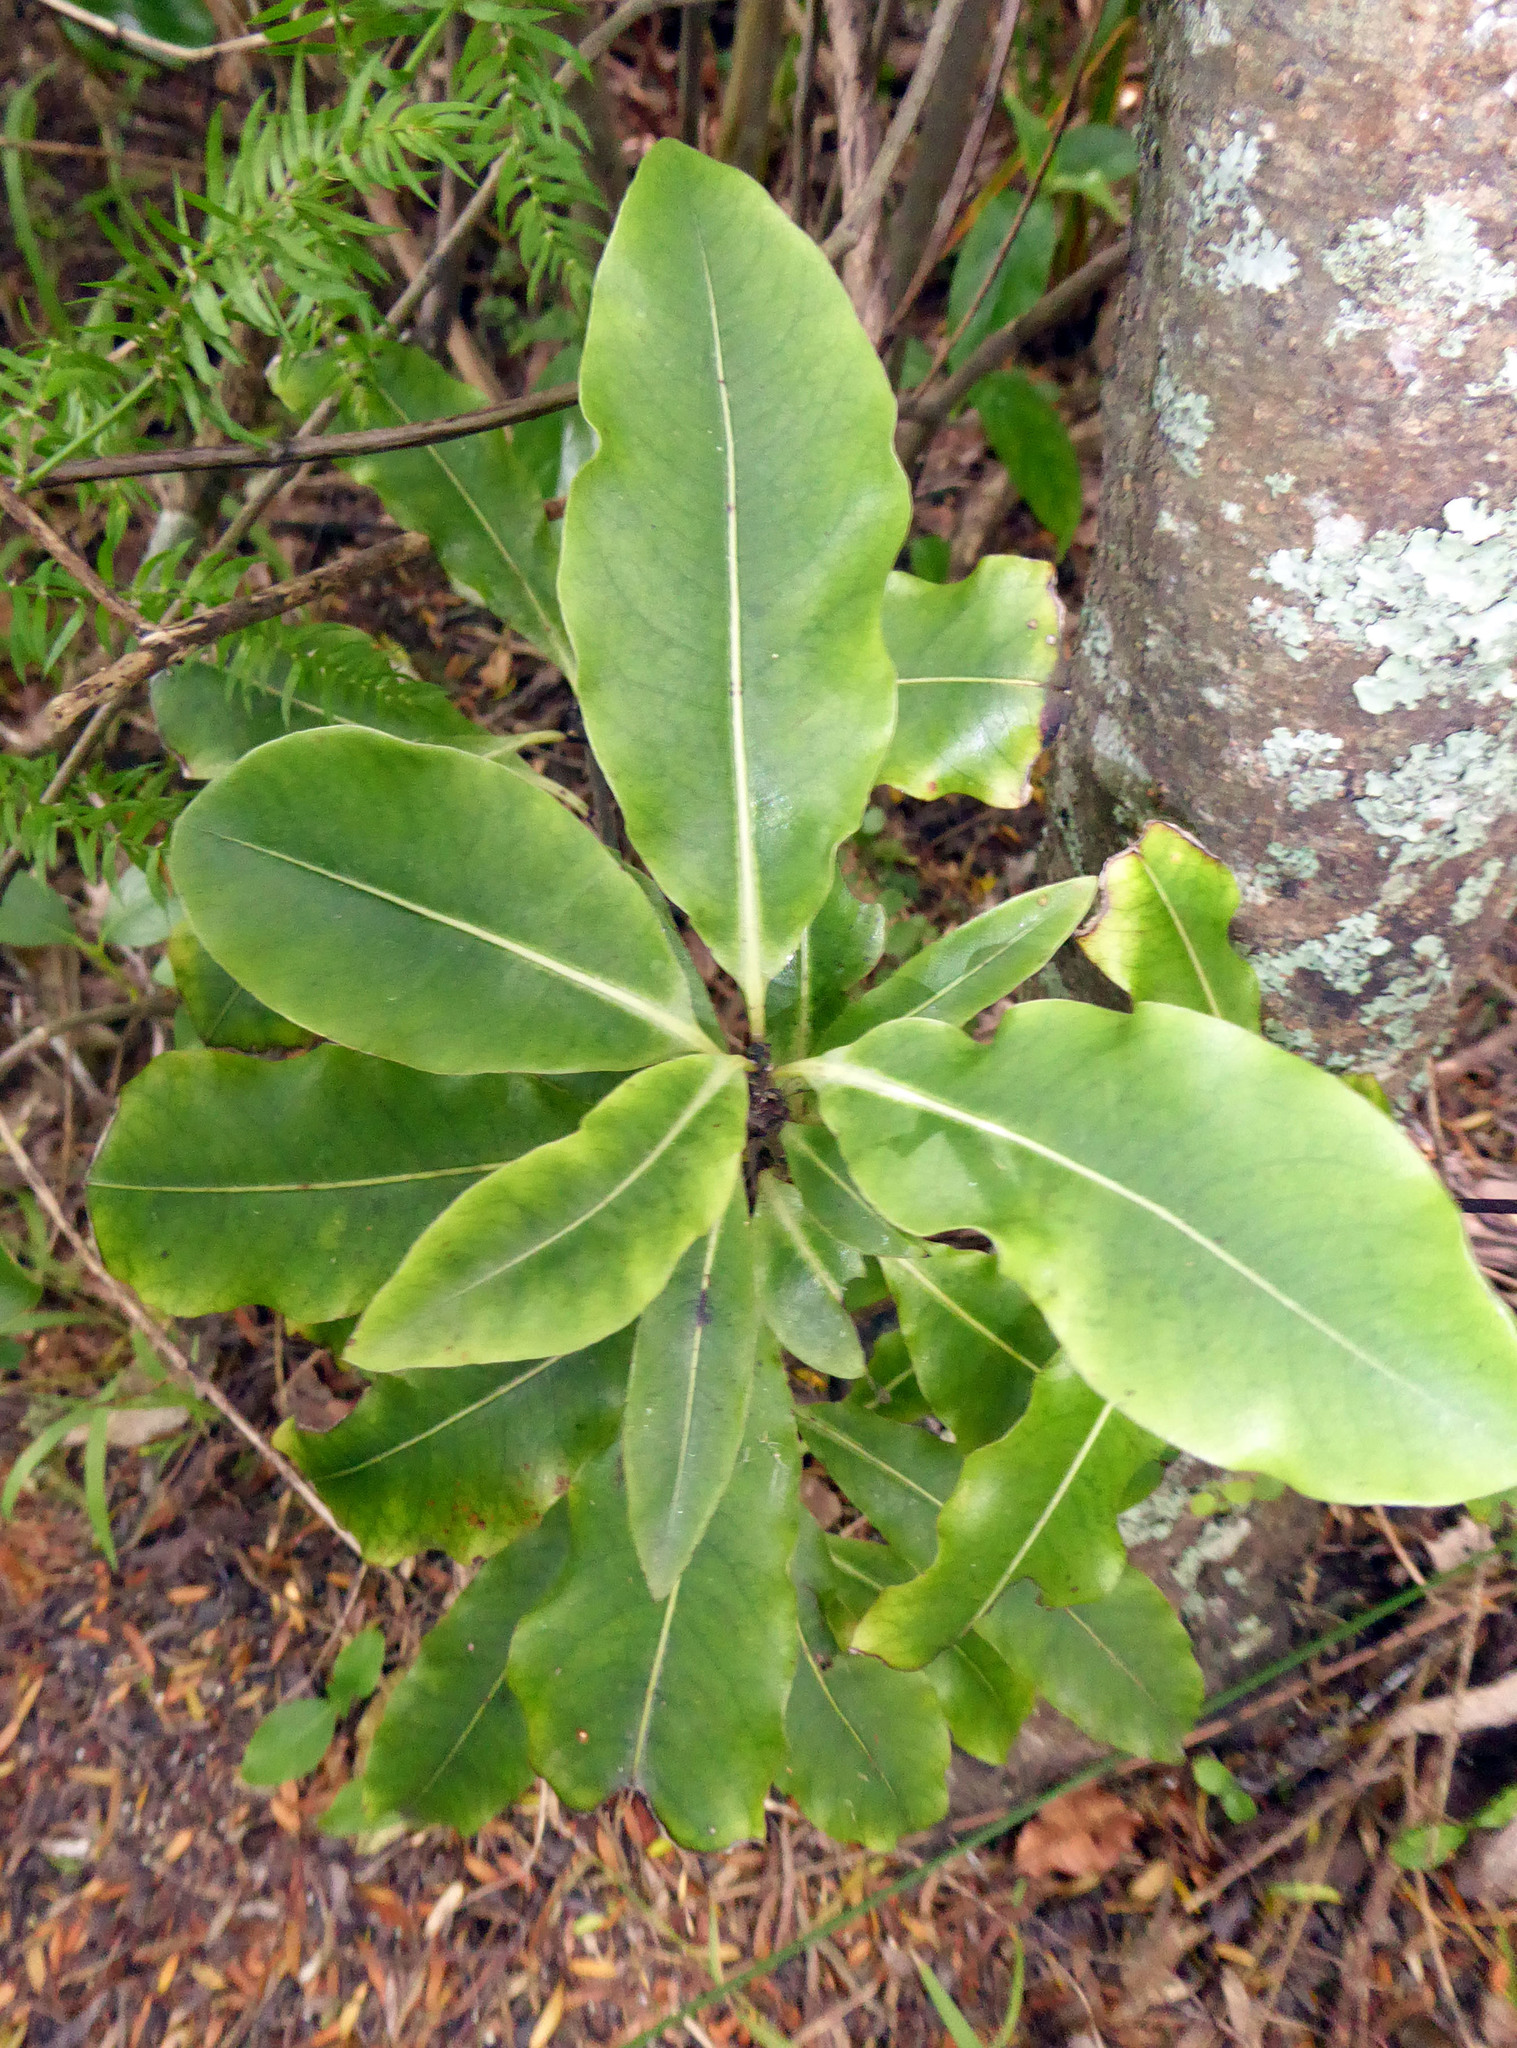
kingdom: Plantae
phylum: Tracheophyta
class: Magnoliopsida
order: Apiales
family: Pittosporaceae
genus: Pittosporum
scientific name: Pittosporum eugenioides
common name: Lemonwood
